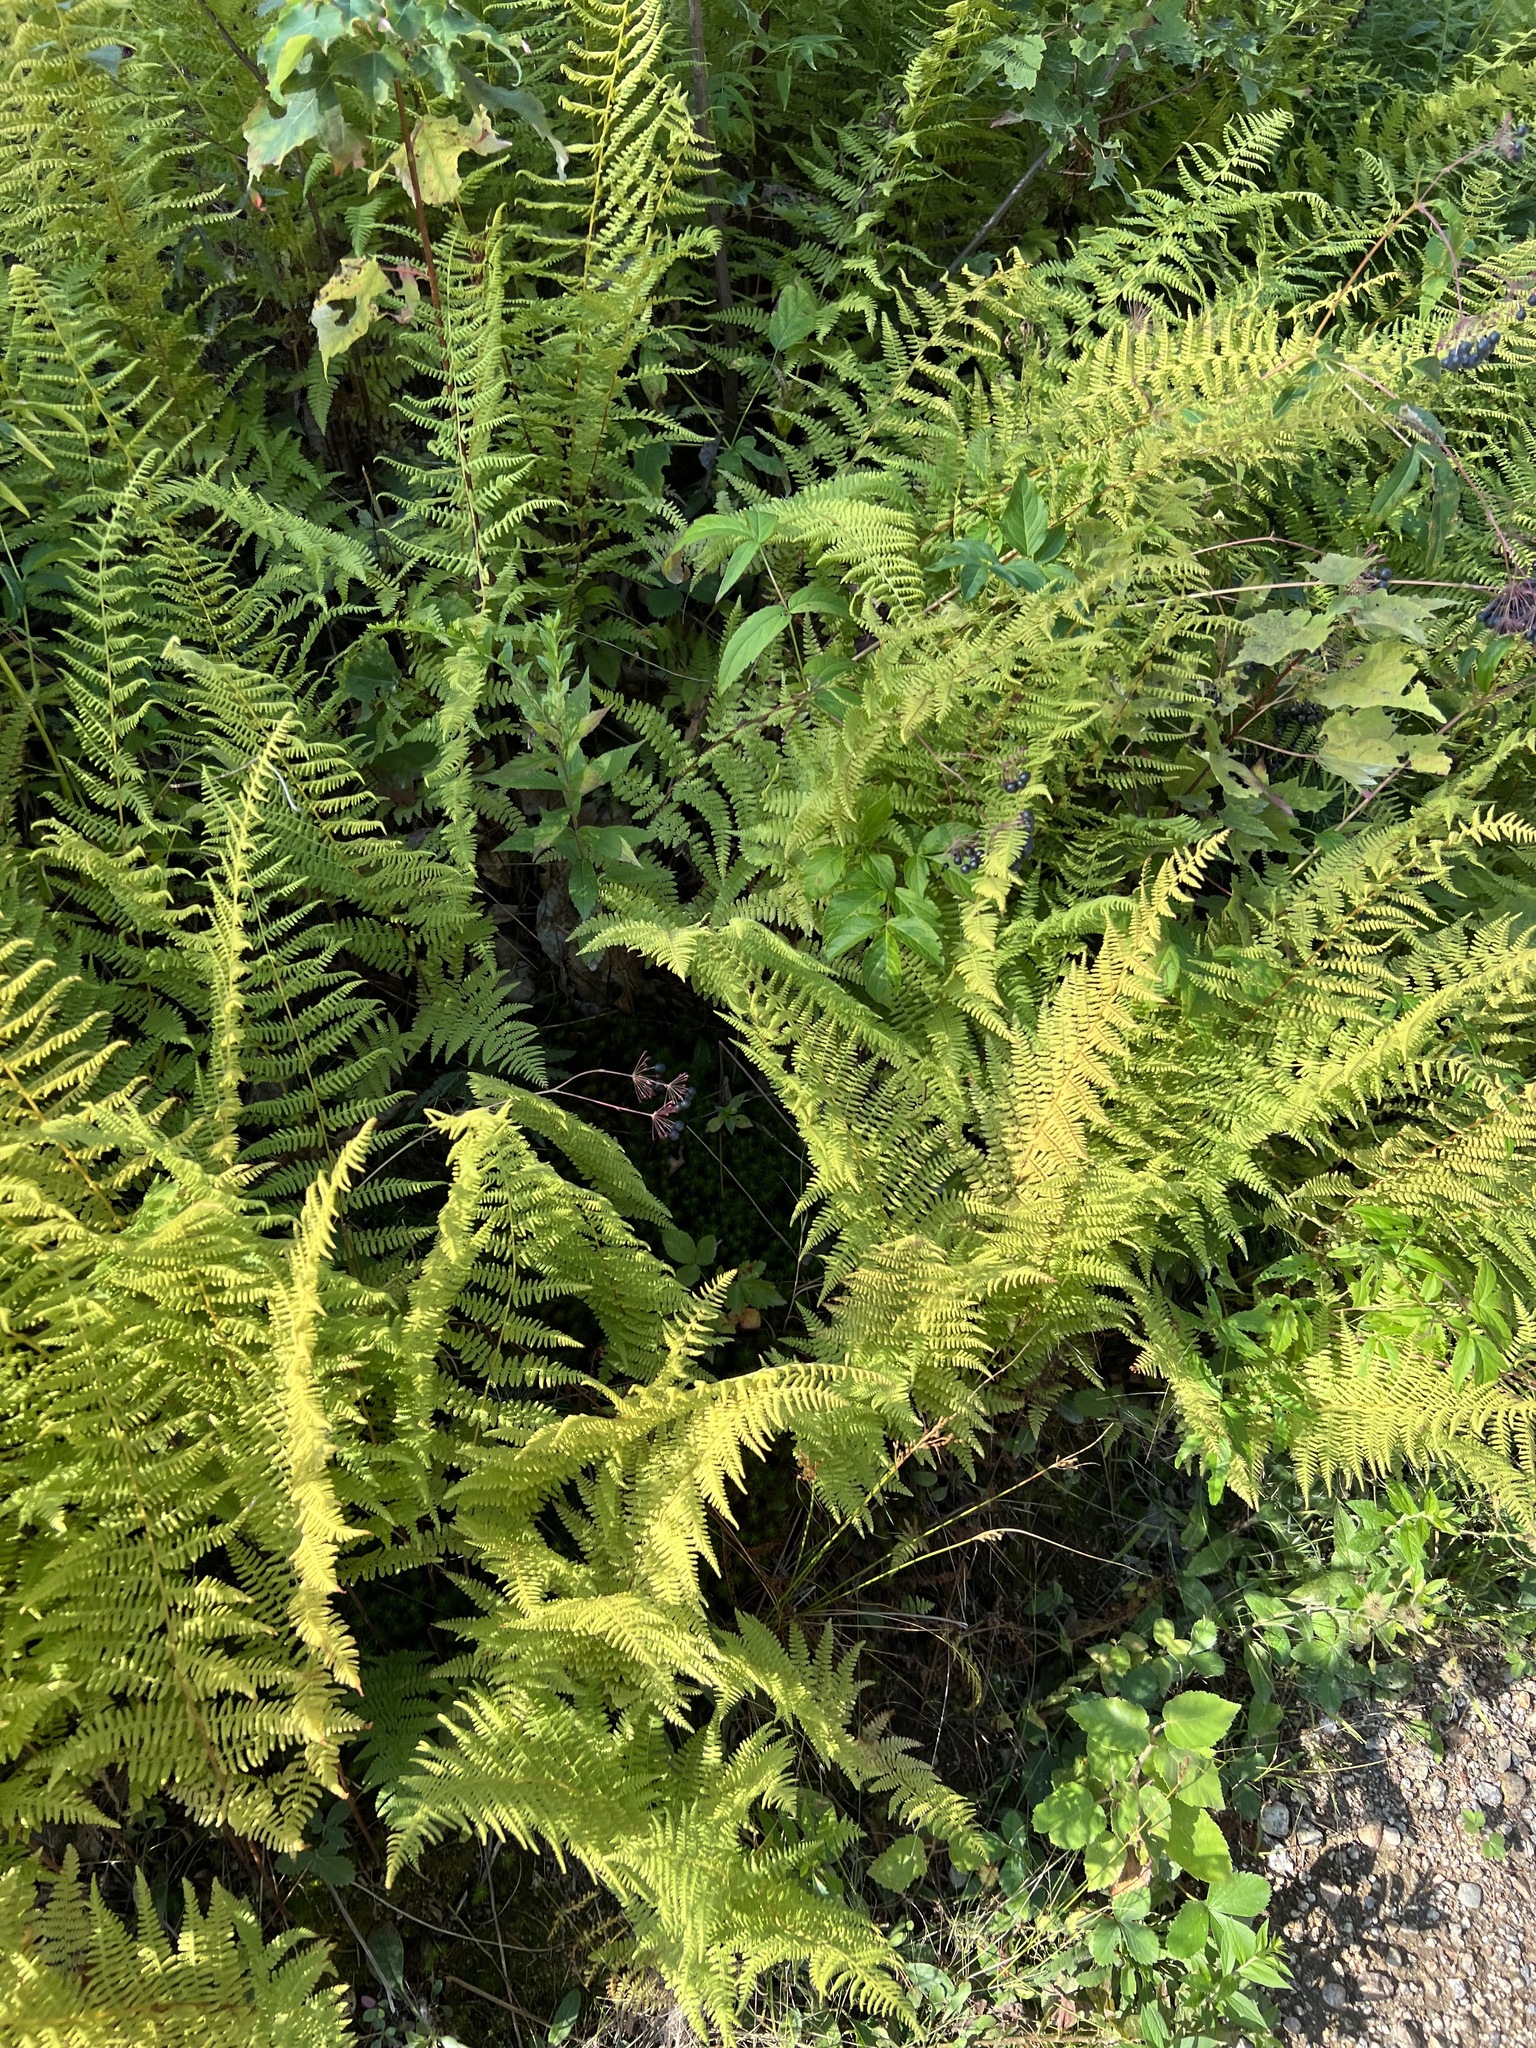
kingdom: Plantae
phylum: Tracheophyta
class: Polypodiopsida
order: Polypodiales
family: Dennstaedtiaceae
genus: Sitobolium
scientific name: Sitobolium punctilobum
